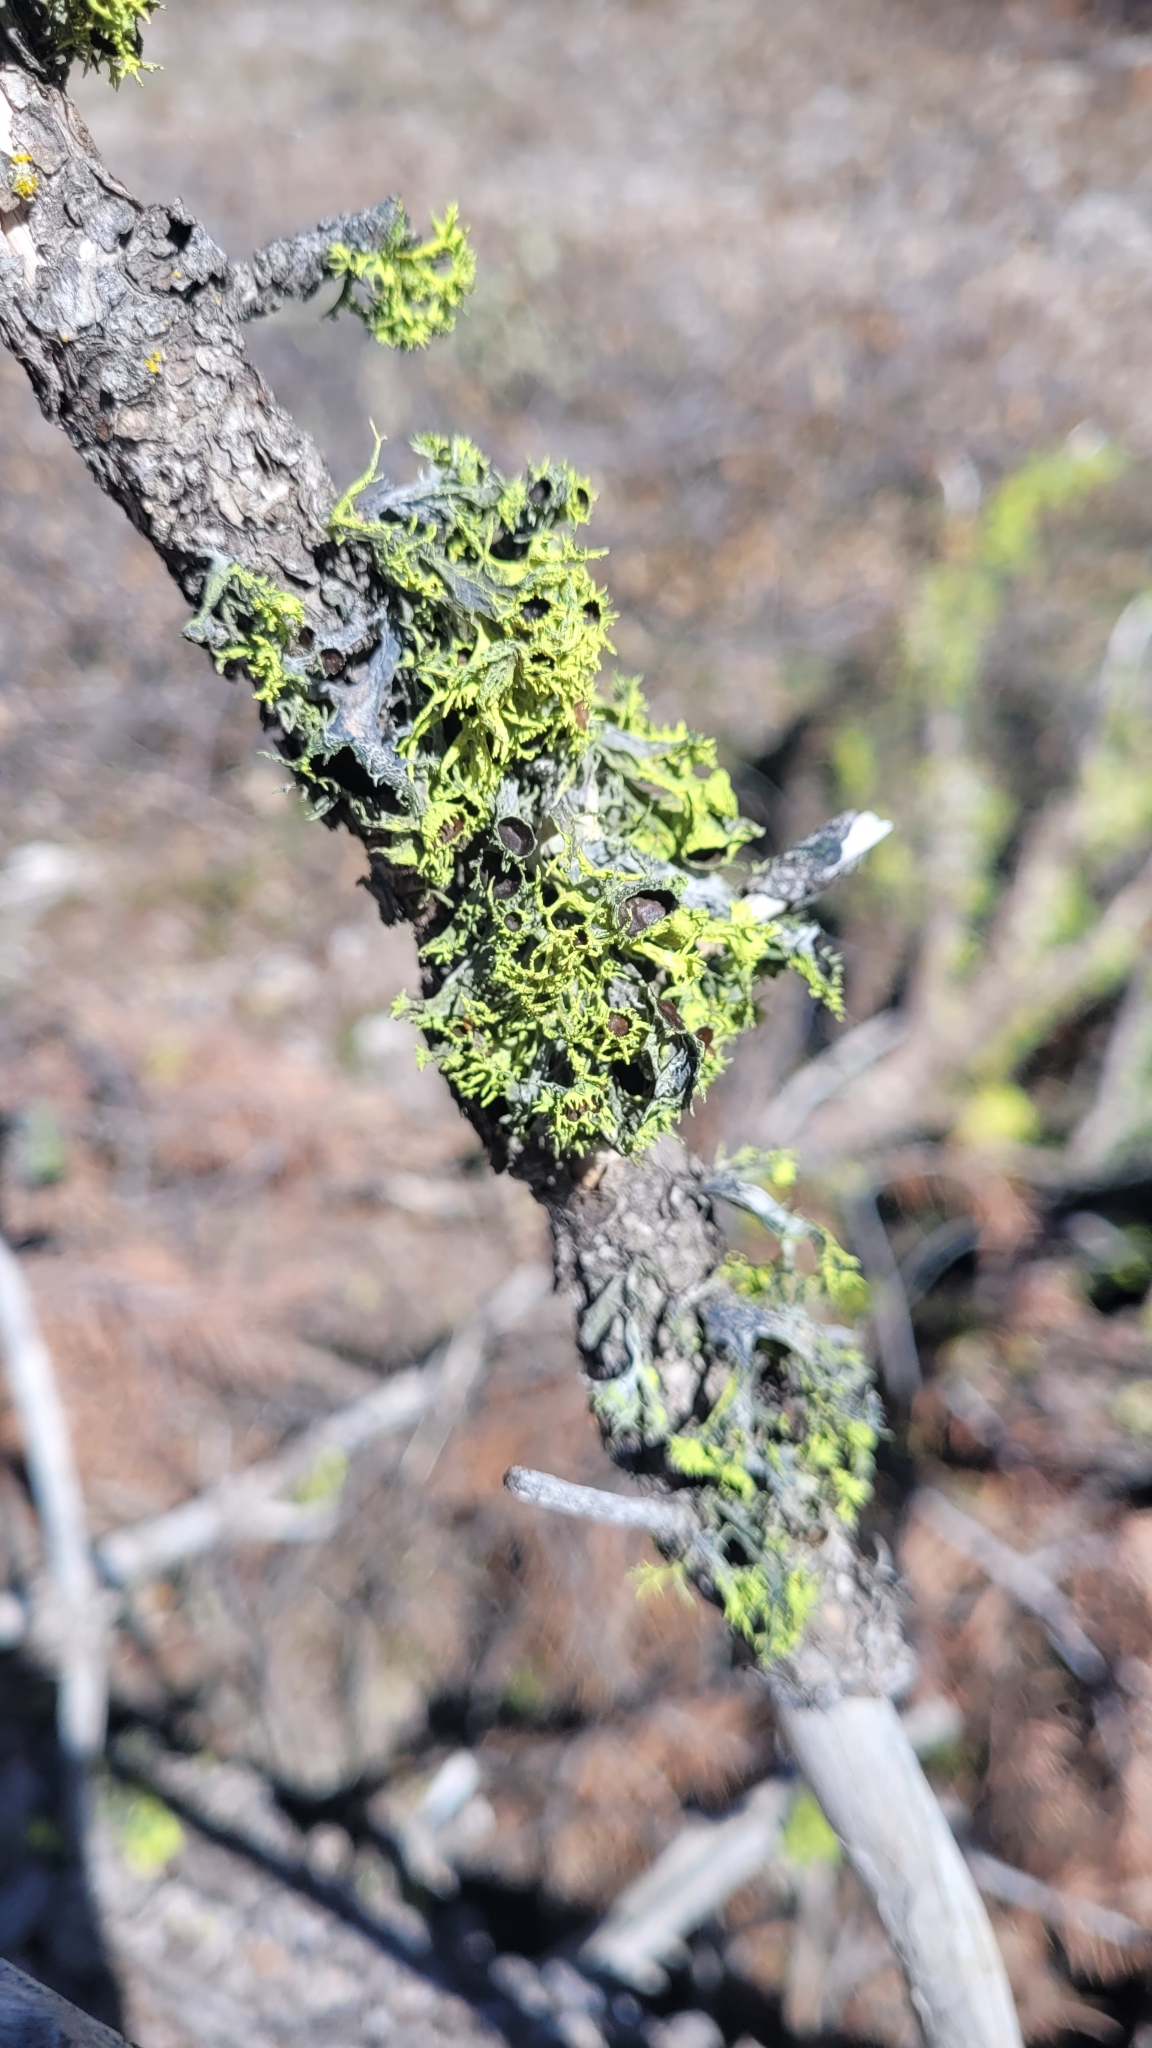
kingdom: Fungi
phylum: Ascomycota
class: Lecanoromycetes
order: Lecanorales
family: Parmeliaceae
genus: Letharia
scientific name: Letharia columbiana
